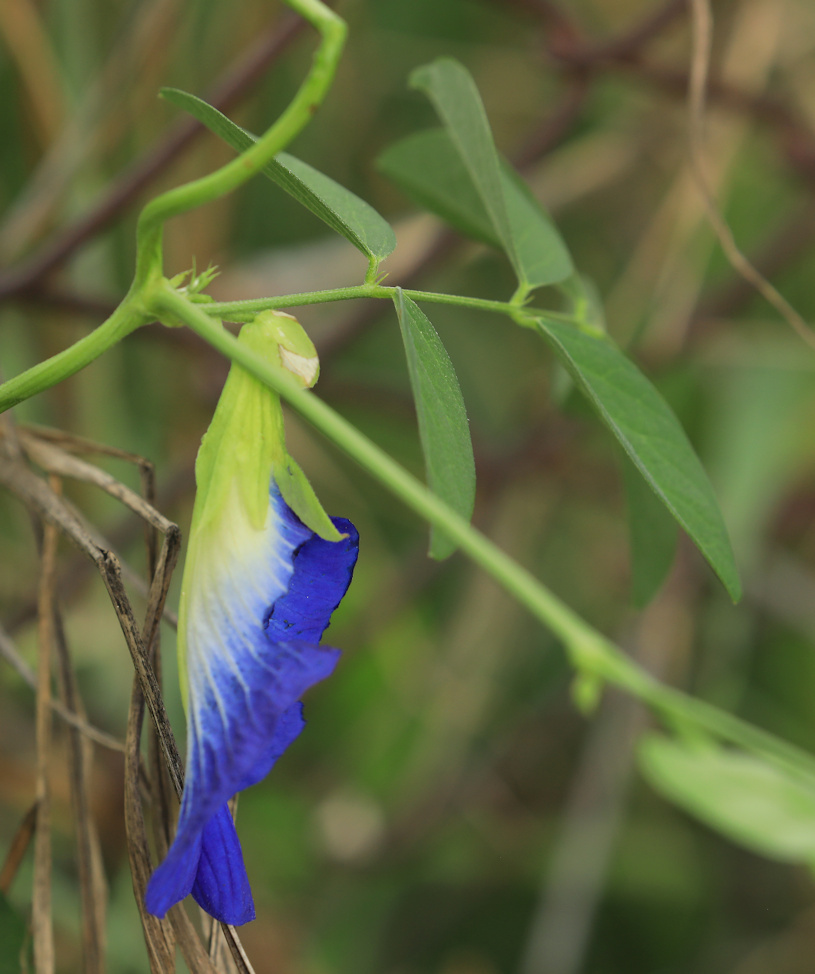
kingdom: Plantae
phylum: Tracheophyta
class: Magnoliopsida
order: Fabales
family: Fabaceae
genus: Clitoria
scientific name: Clitoria ternatea
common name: Asian pigeonwings
